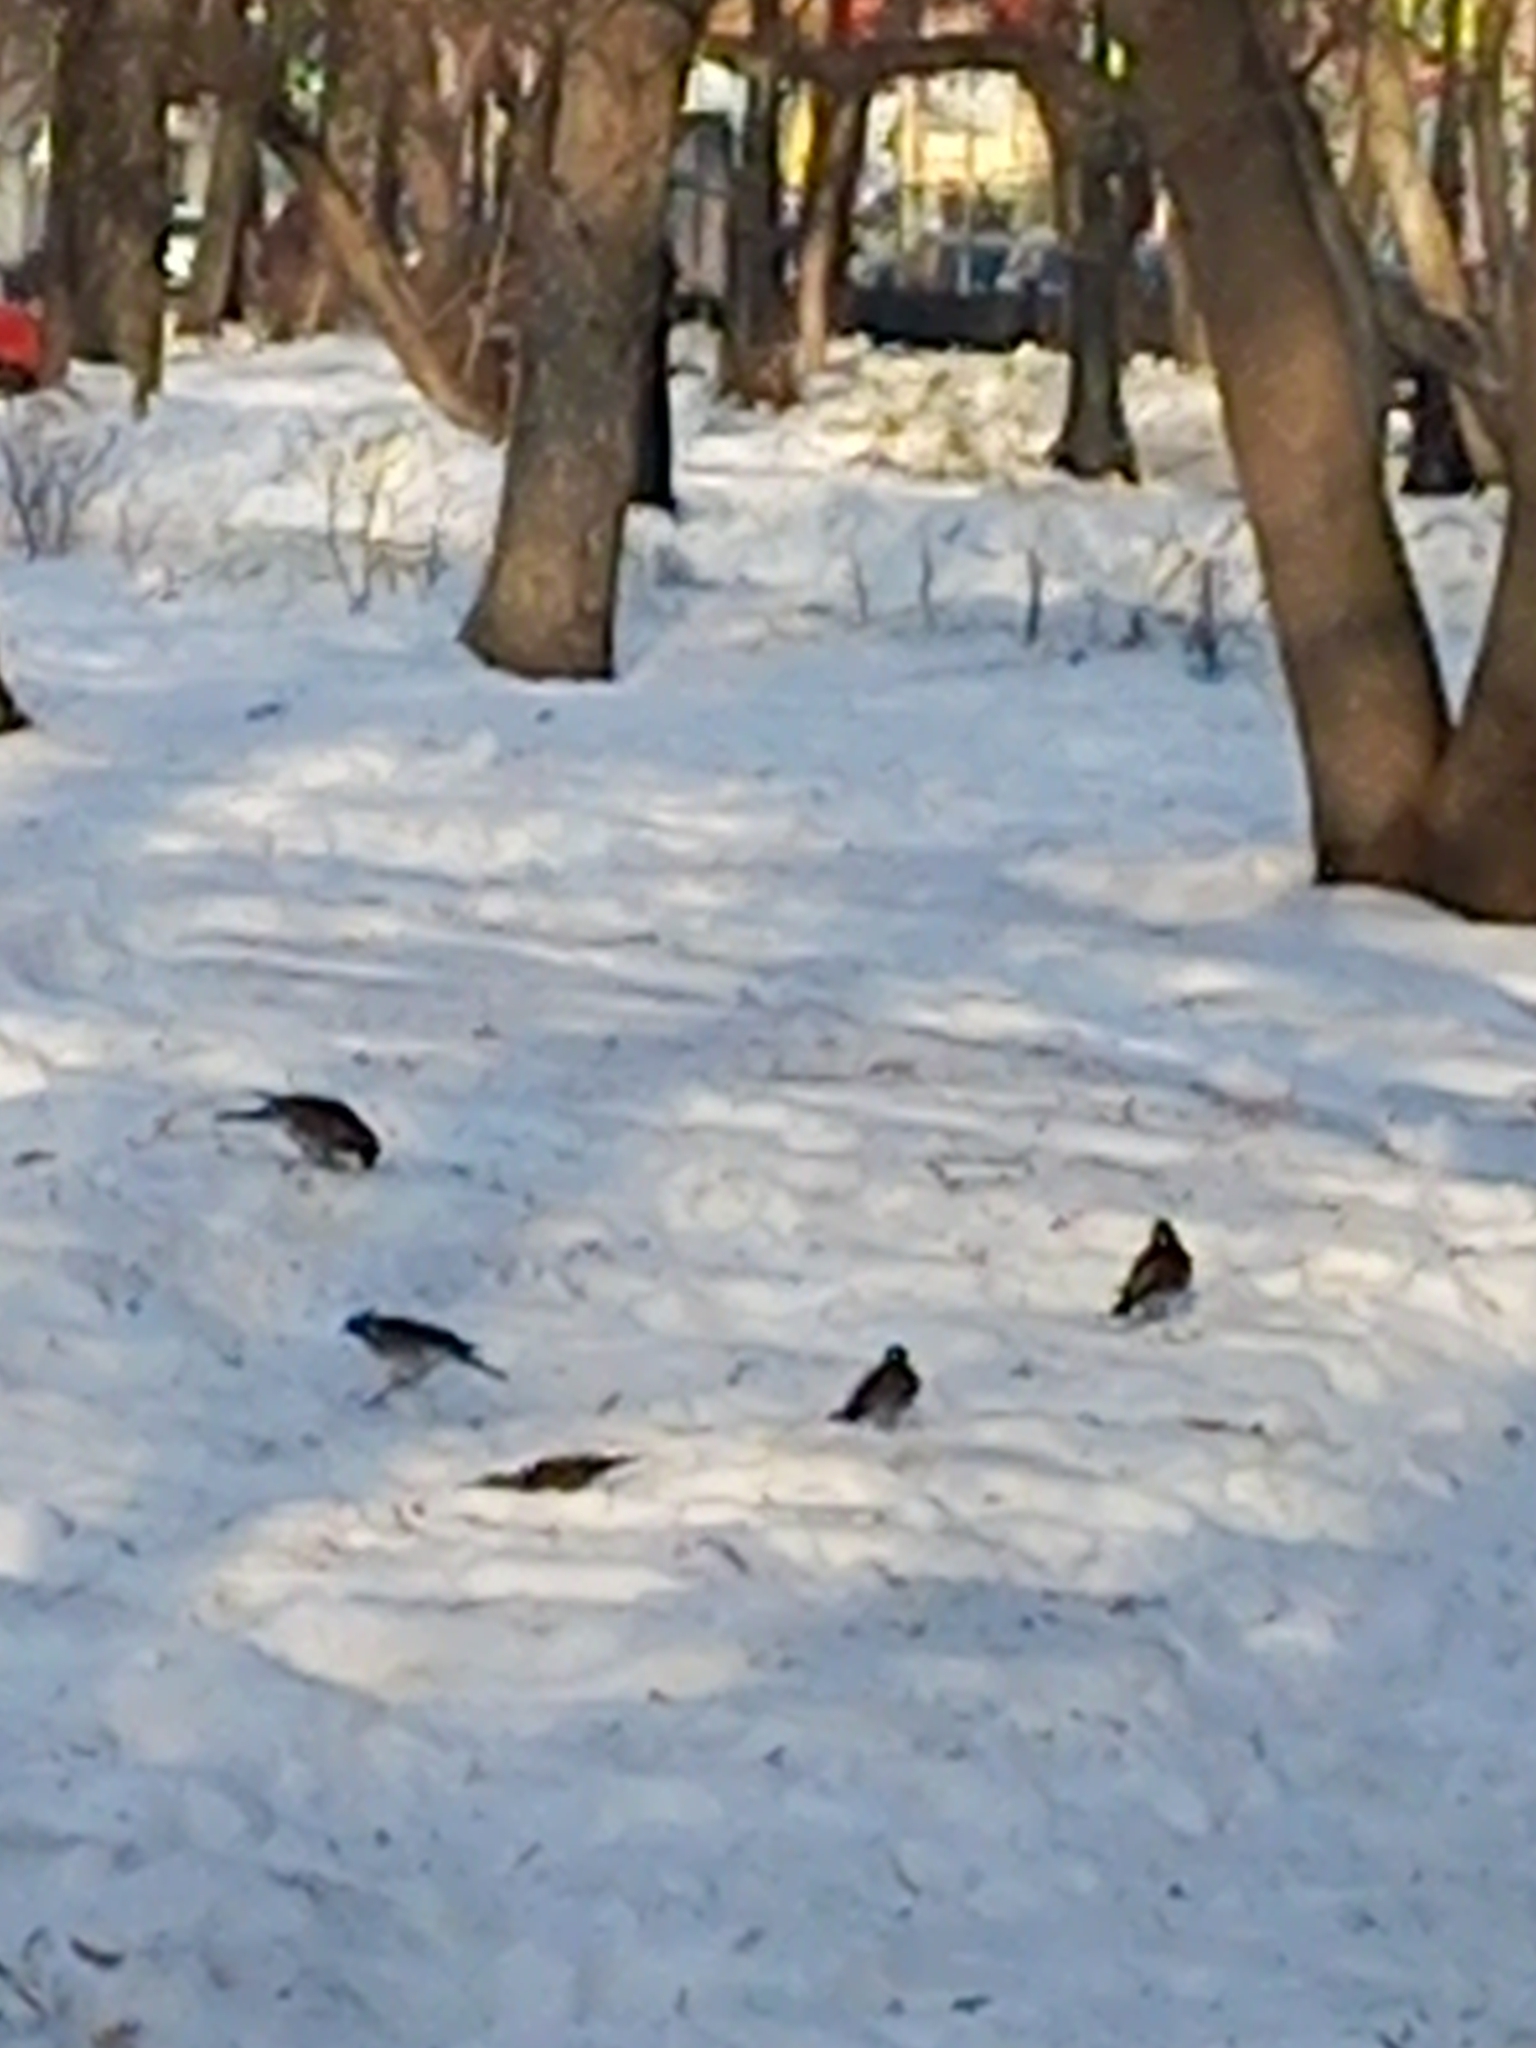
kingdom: Animalia
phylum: Chordata
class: Aves
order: Passeriformes
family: Turdidae
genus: Turdus
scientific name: Turdus pilaris
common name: Fieldfare
